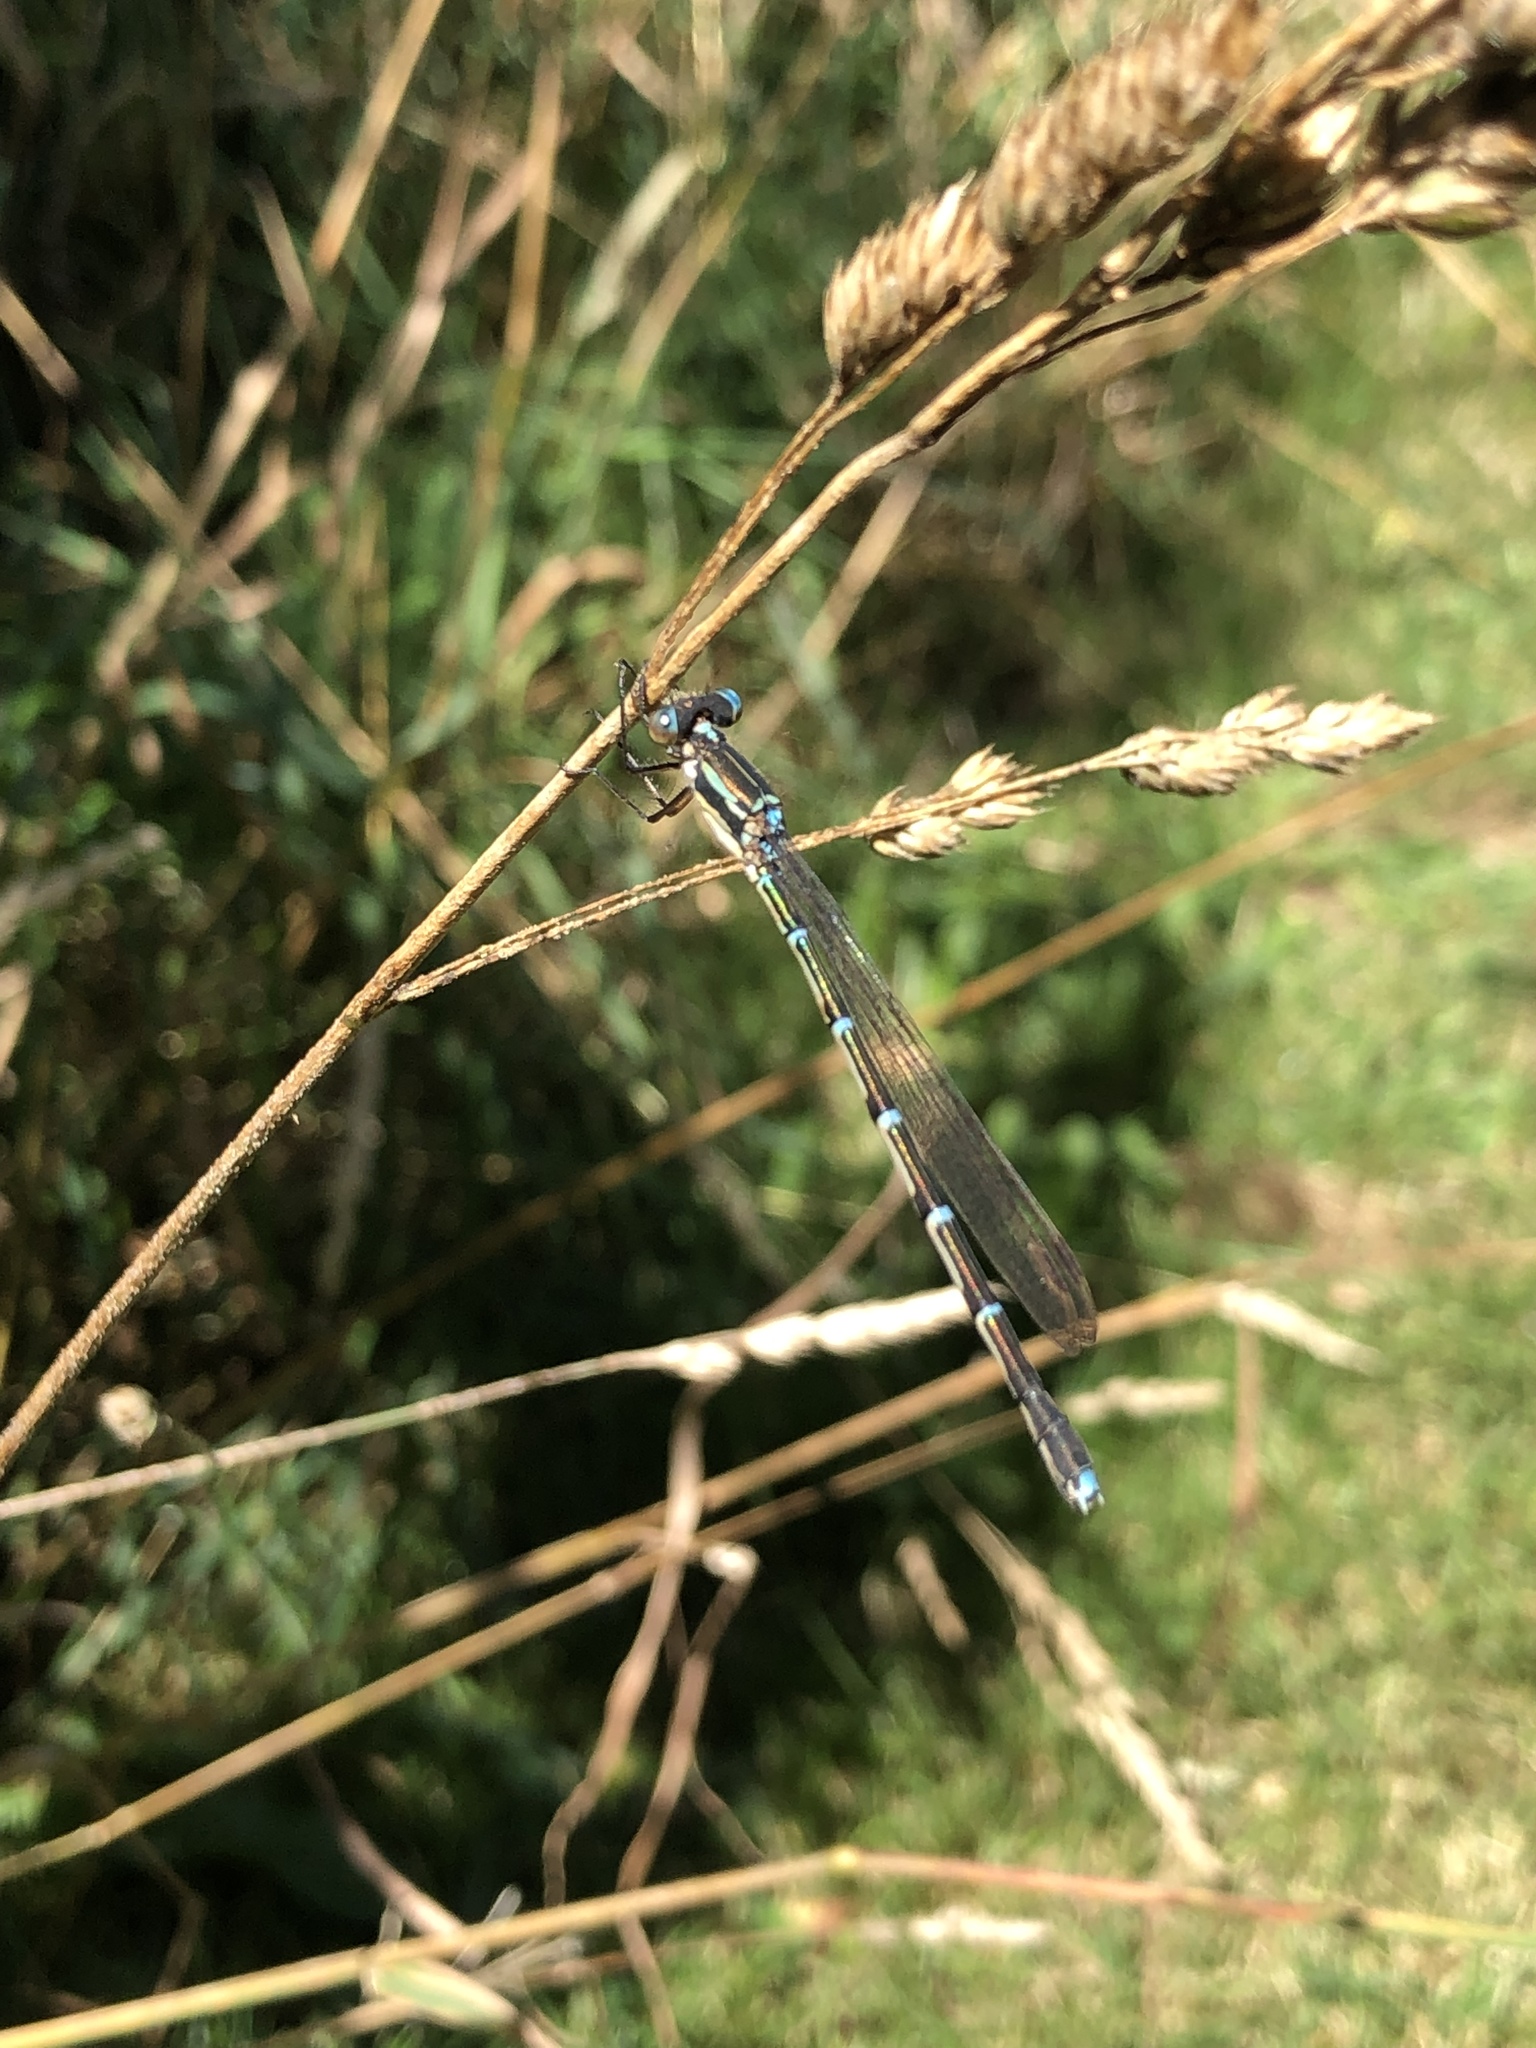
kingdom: Animalia
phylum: Arthropoda
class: Insecta
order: Odonata
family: Lestidae
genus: Austrolestes
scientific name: Austrolestes colensonis
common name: Blue damselfly
